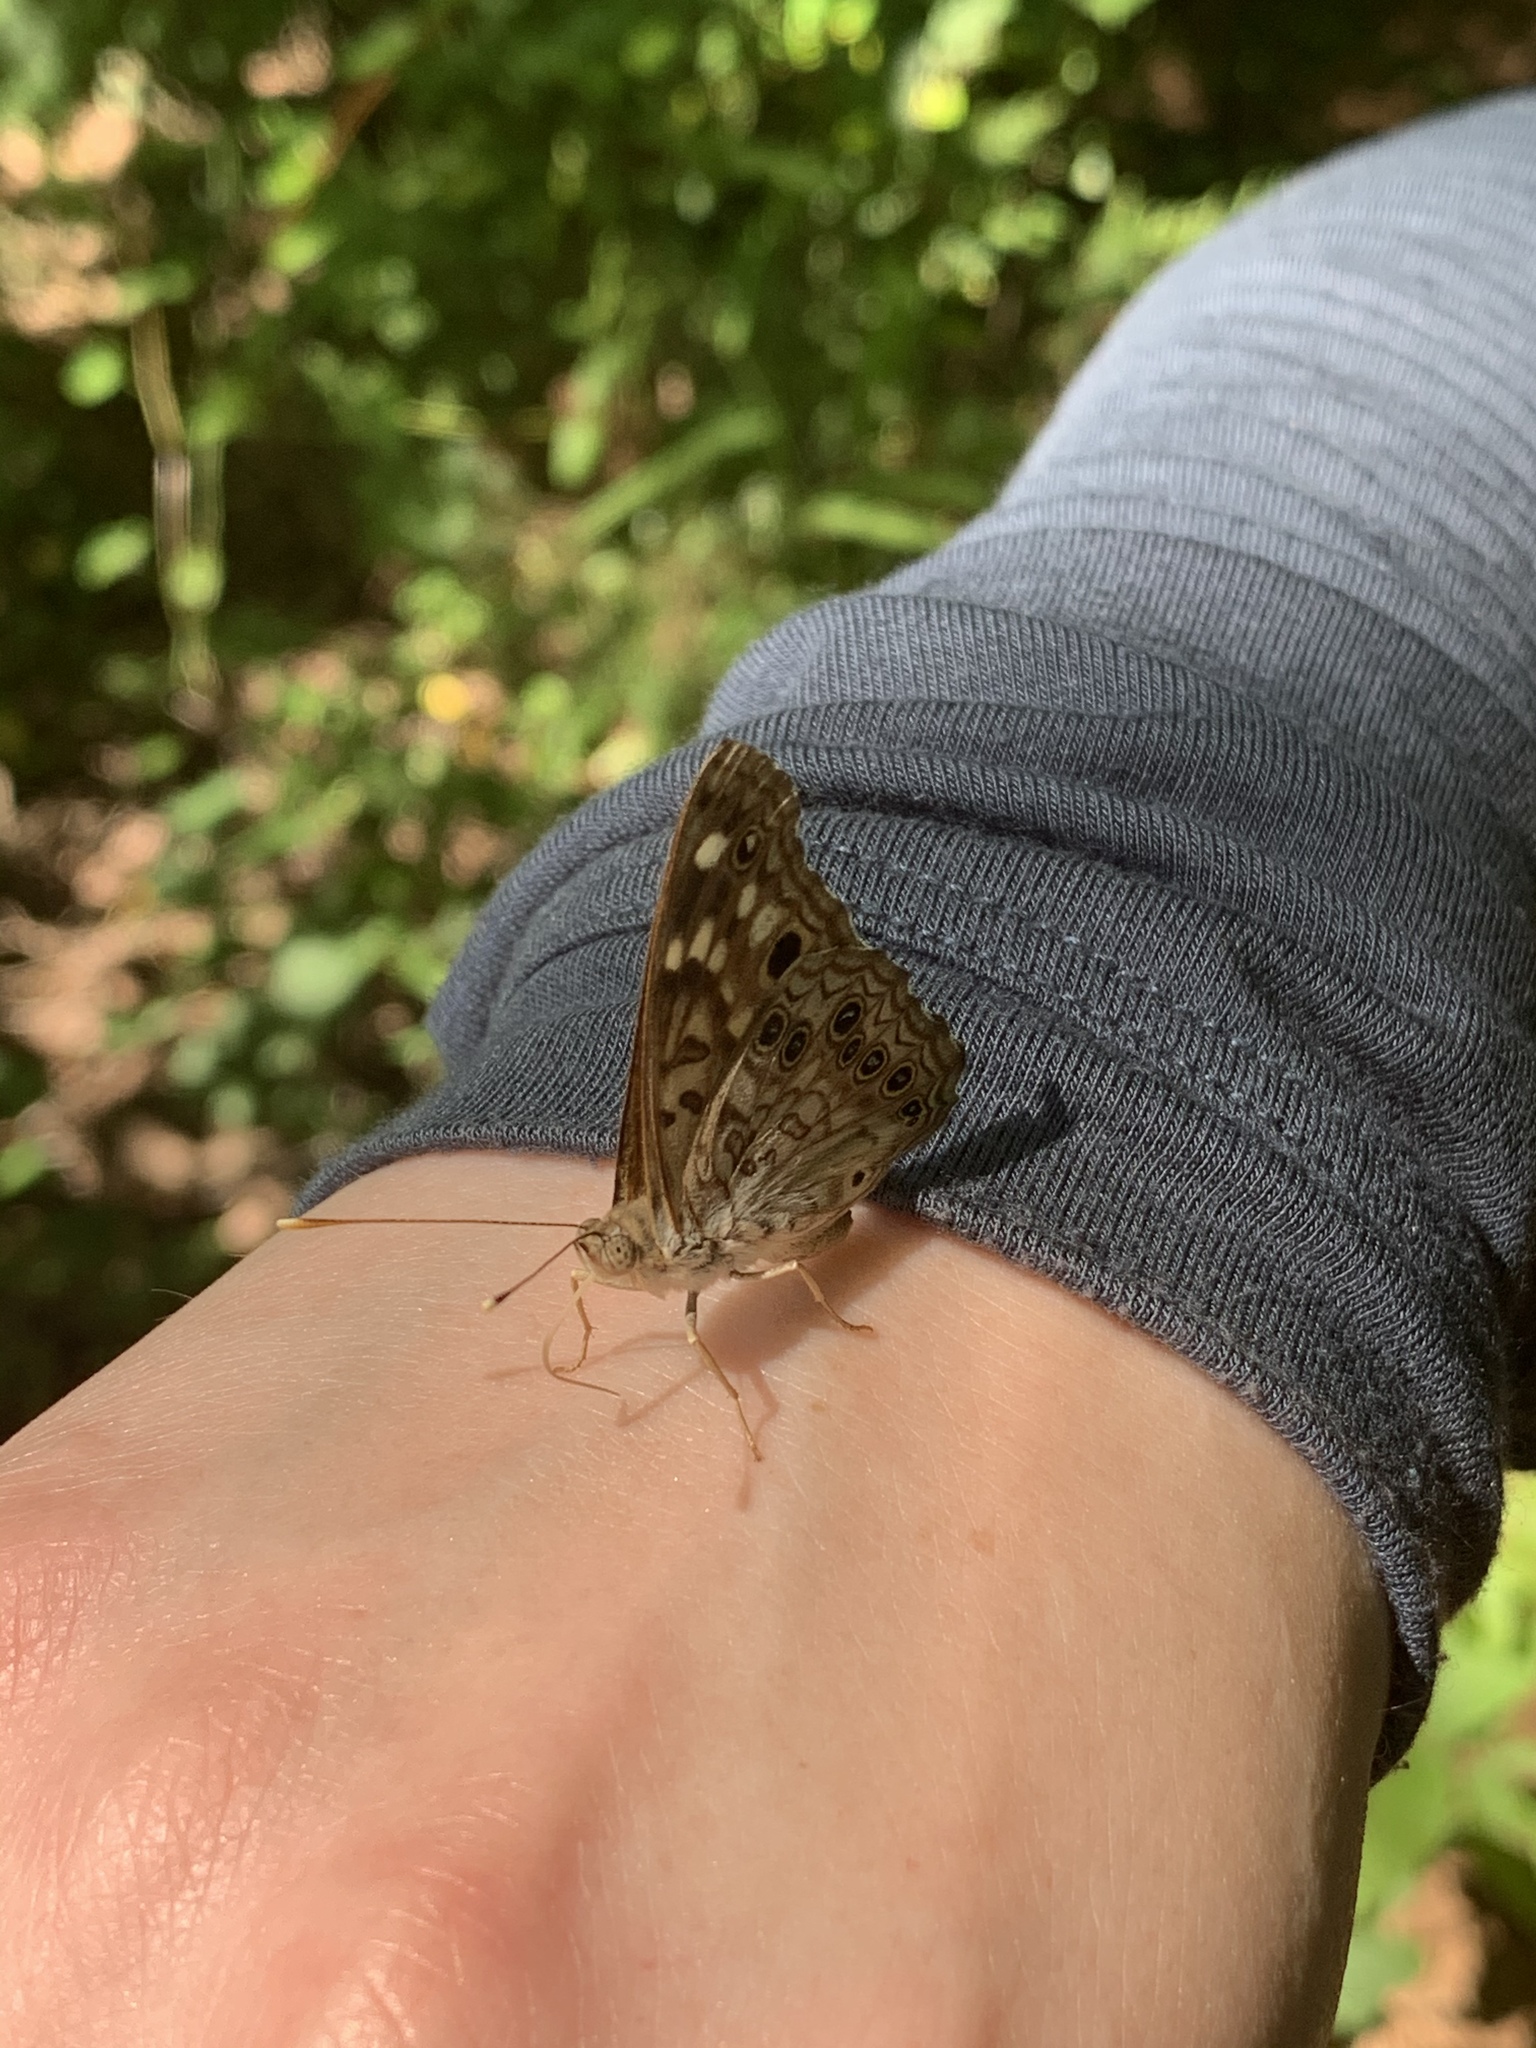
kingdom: Animalia
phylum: Arthropoda
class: Insecta
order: Lepidoptera
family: Nymphalidae
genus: Asterocampa
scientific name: Asterocampa celtis
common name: Hackberry emperor
